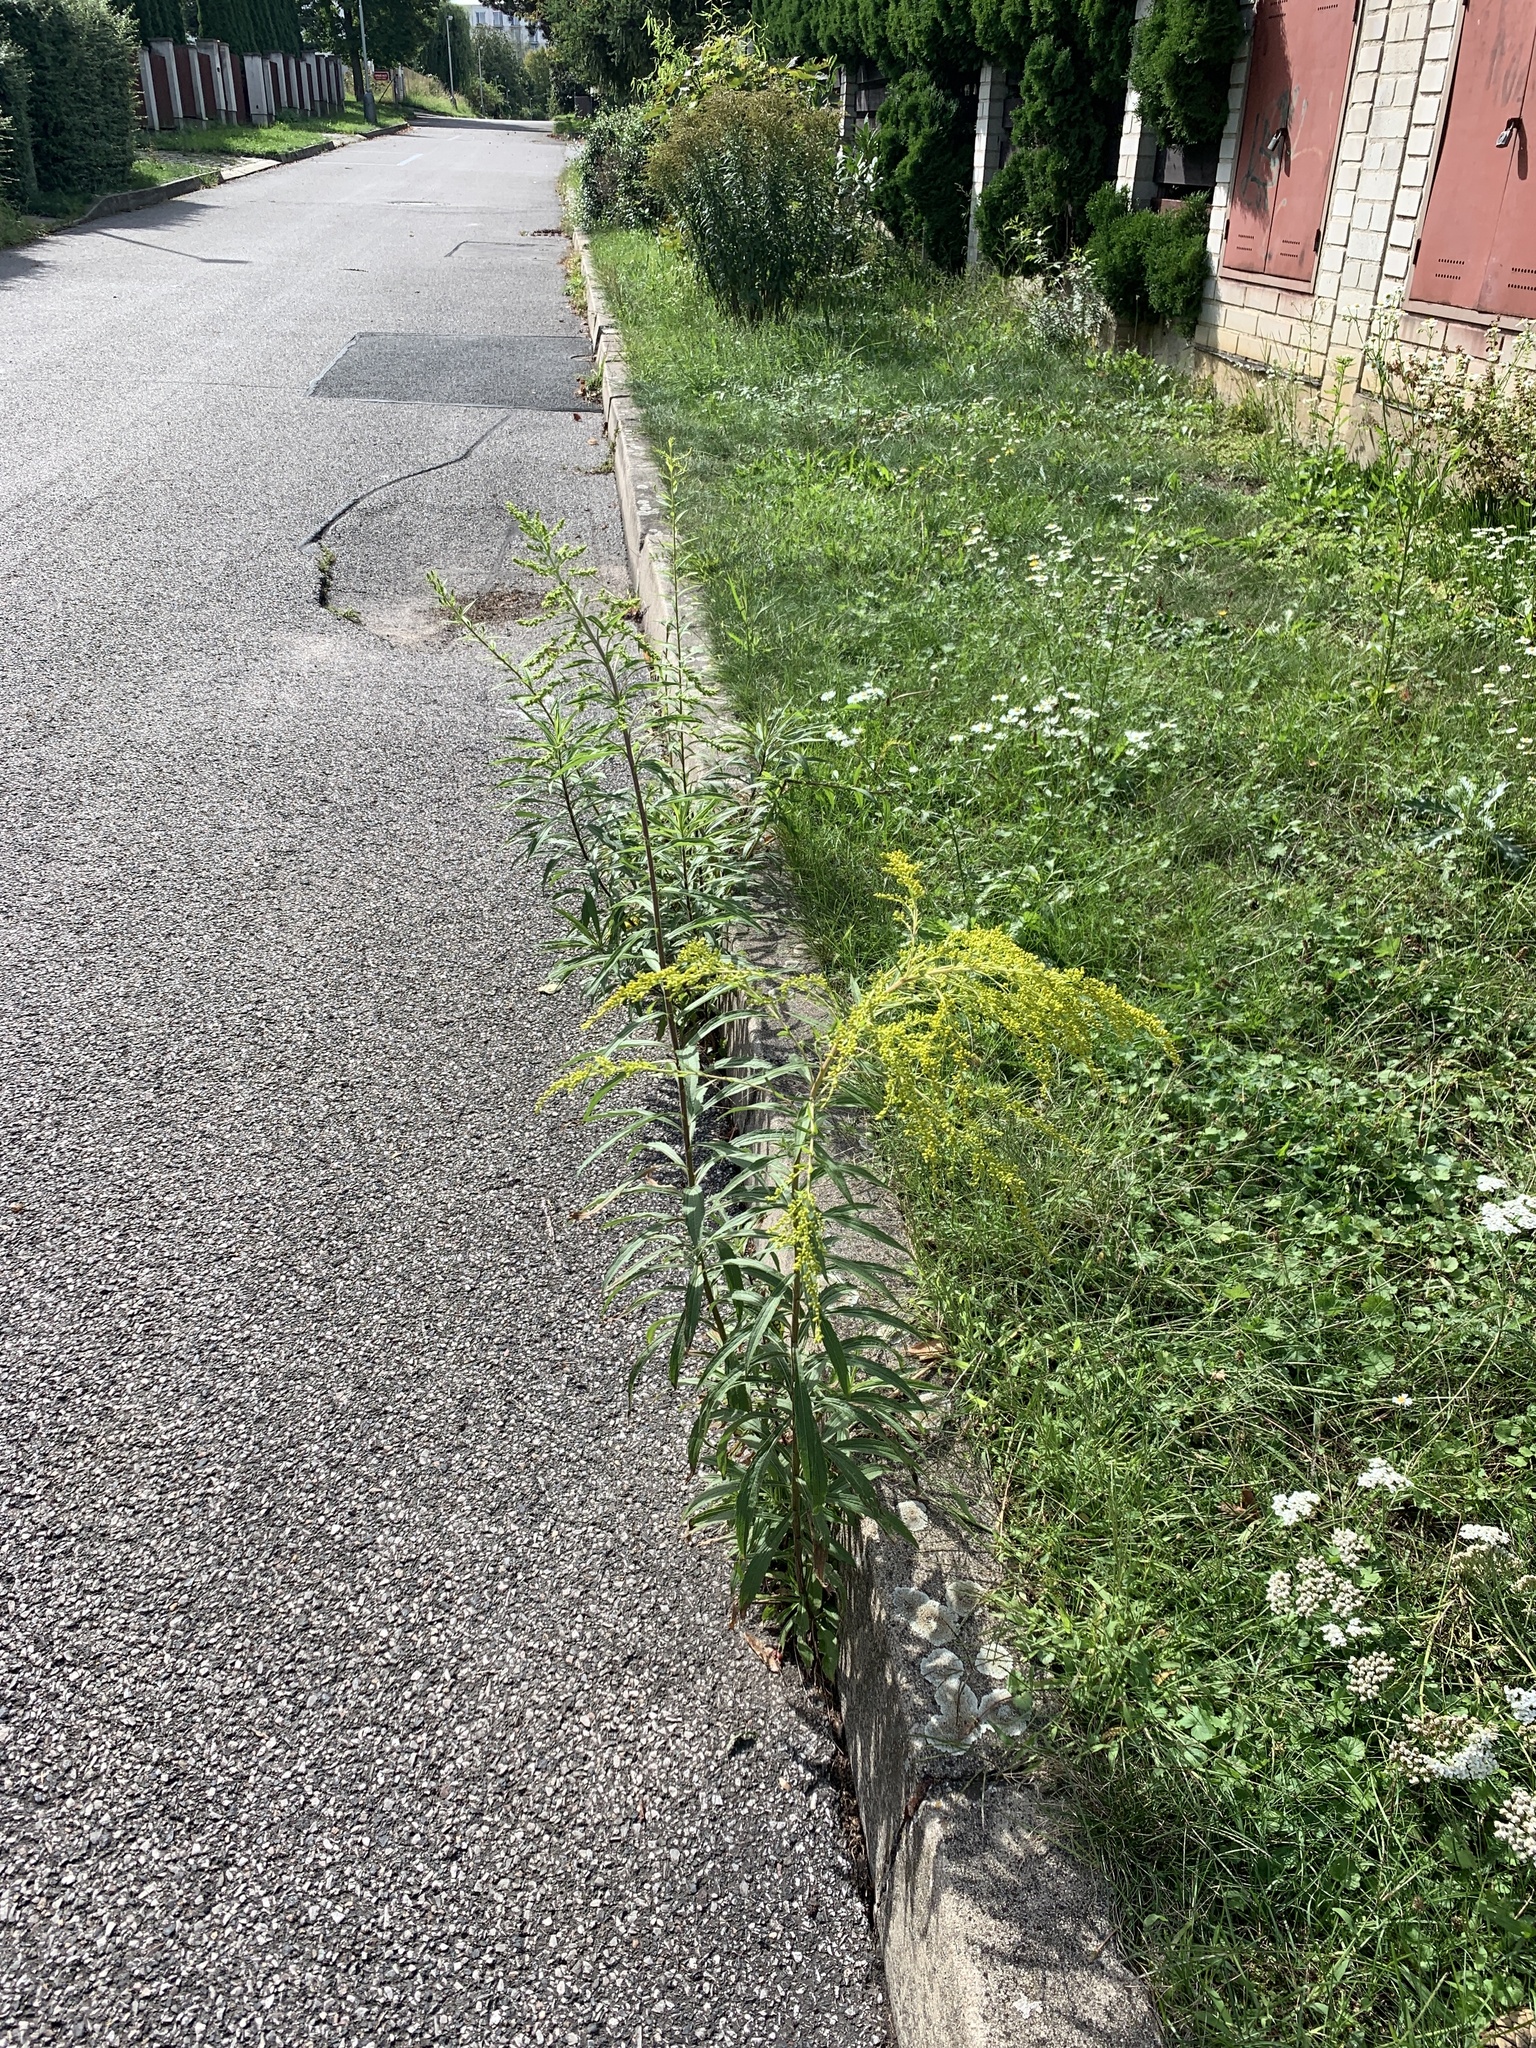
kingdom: Plantae
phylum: Tracheophyta
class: Magnoliopsida
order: Asterales
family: Asteraceae
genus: Solidago
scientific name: Solidago canadensis
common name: Canada goldenrod
